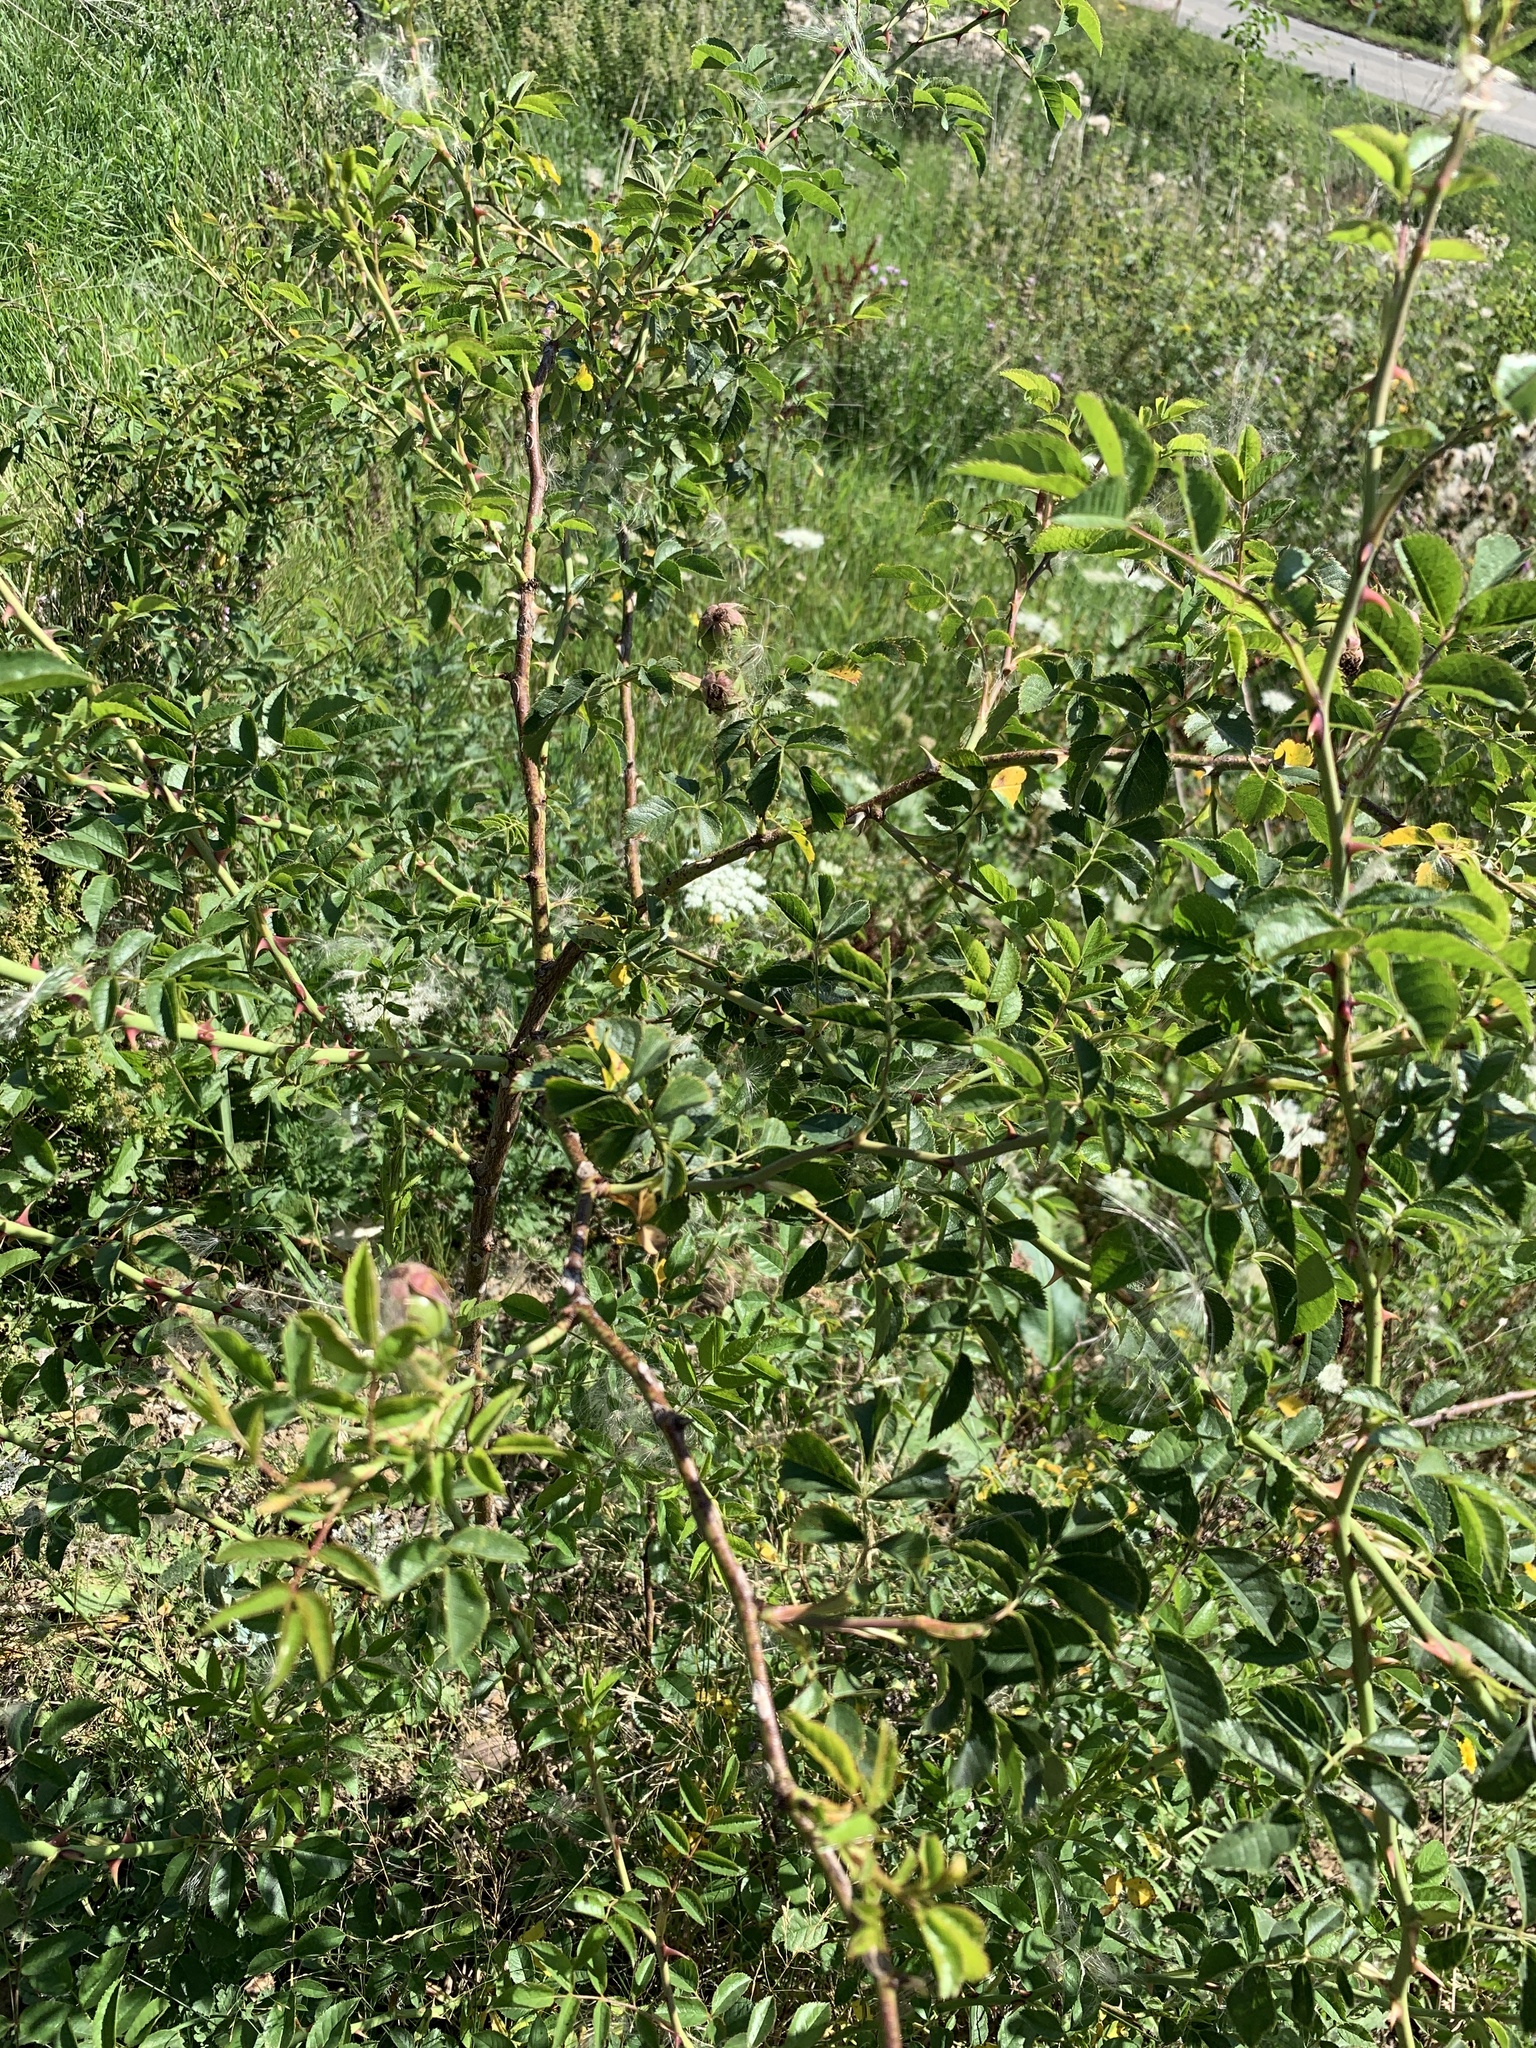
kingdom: Plantae
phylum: Tracheophyta
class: Magnoliopsida
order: Rosales
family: Rosaceae
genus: Rosa
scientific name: Rosa canina
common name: Dog rose
